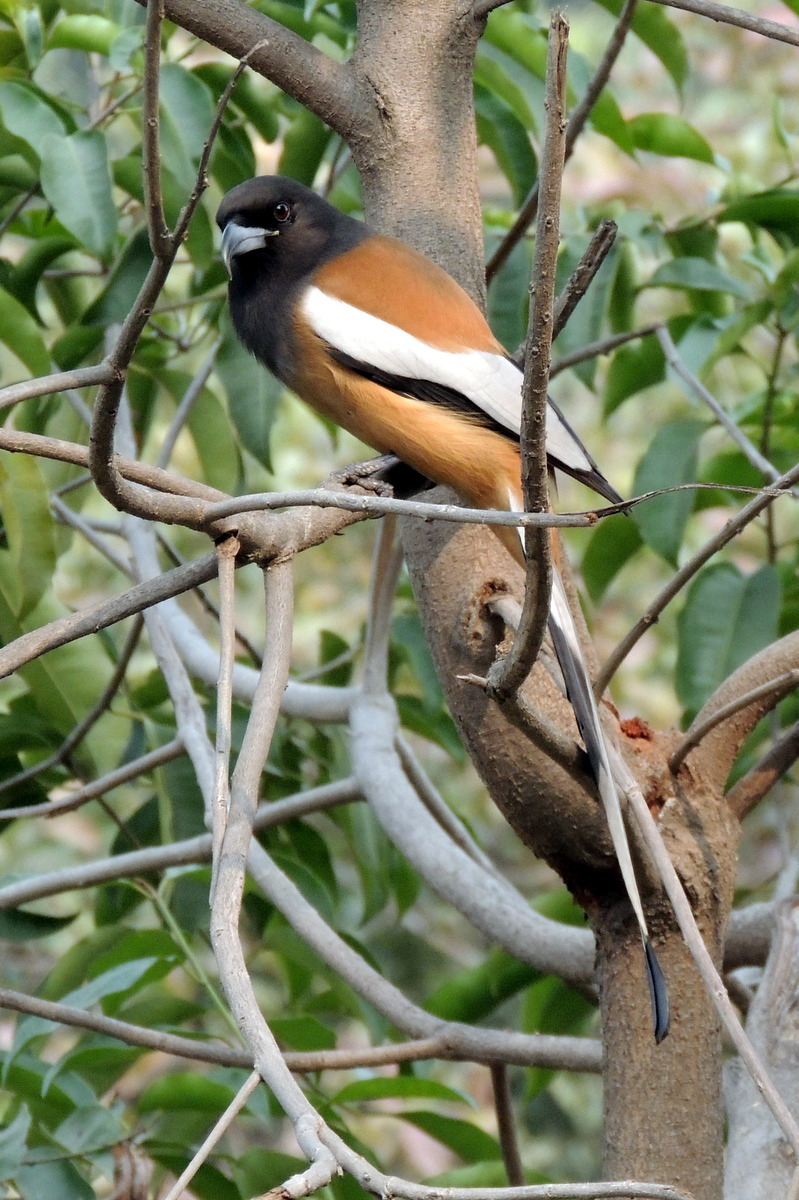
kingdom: Animalia
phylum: Chordata
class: Aves
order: Passeriformes
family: Corvidae
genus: Dendrocitta
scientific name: Dendrocitta vagabunda
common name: Rufous treepie
